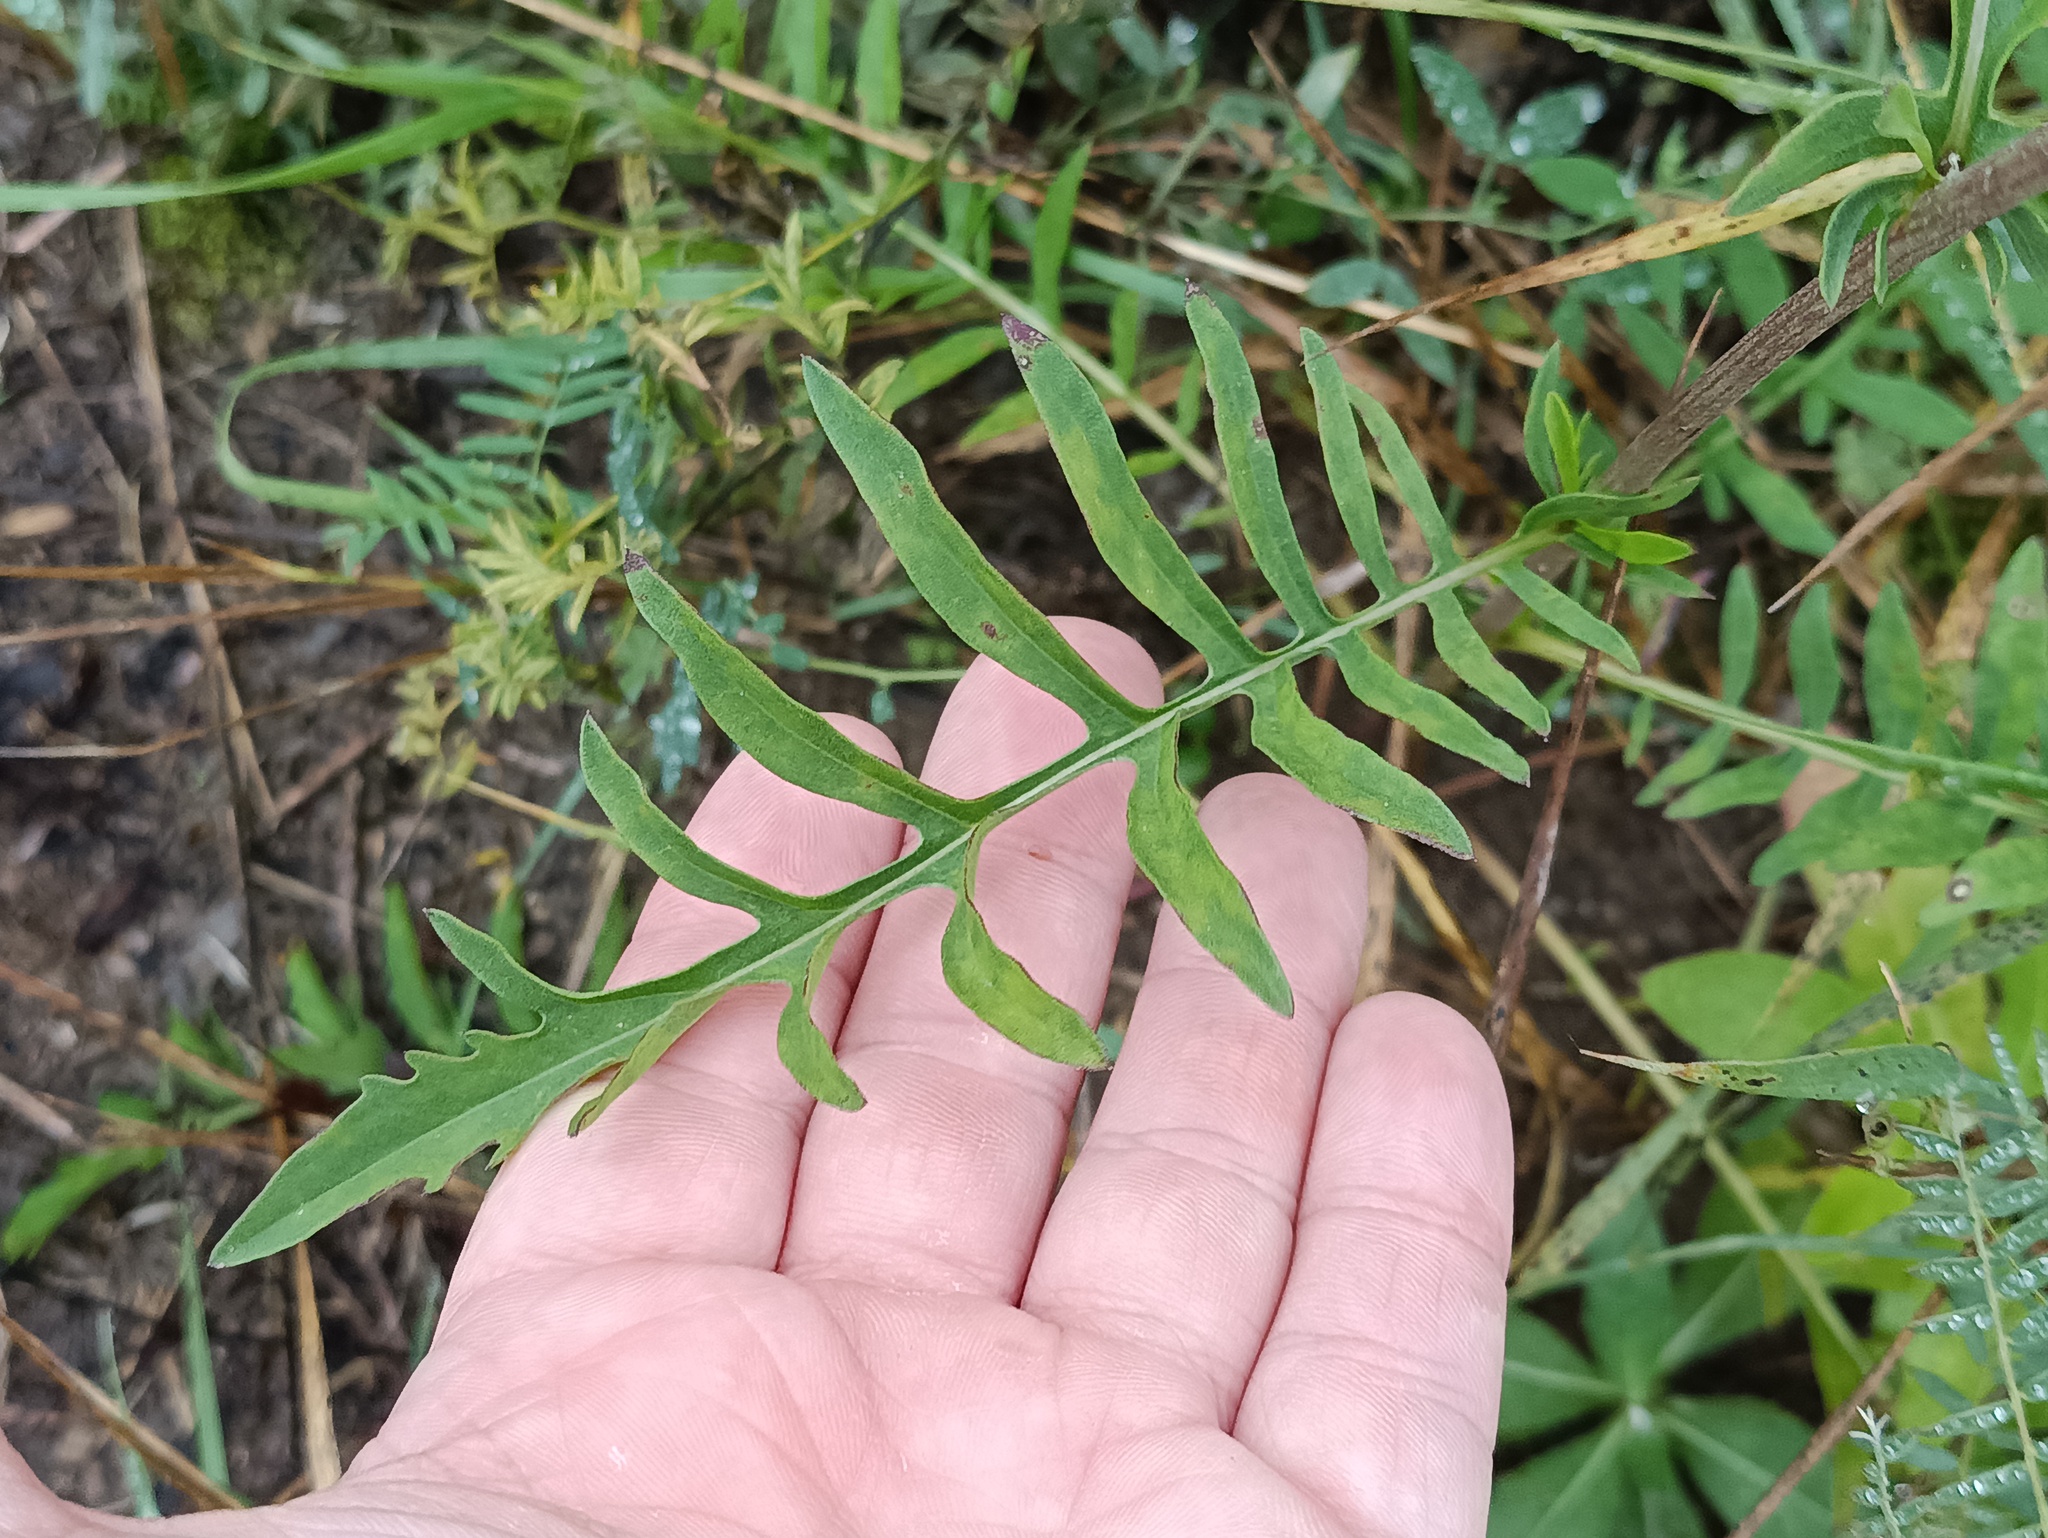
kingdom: Plantae
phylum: Tracheophyta
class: Magnoliopsida
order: Asterales
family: Asteraceae
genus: Centaurea
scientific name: Centaurea scabiosa
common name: Greater knapweed
